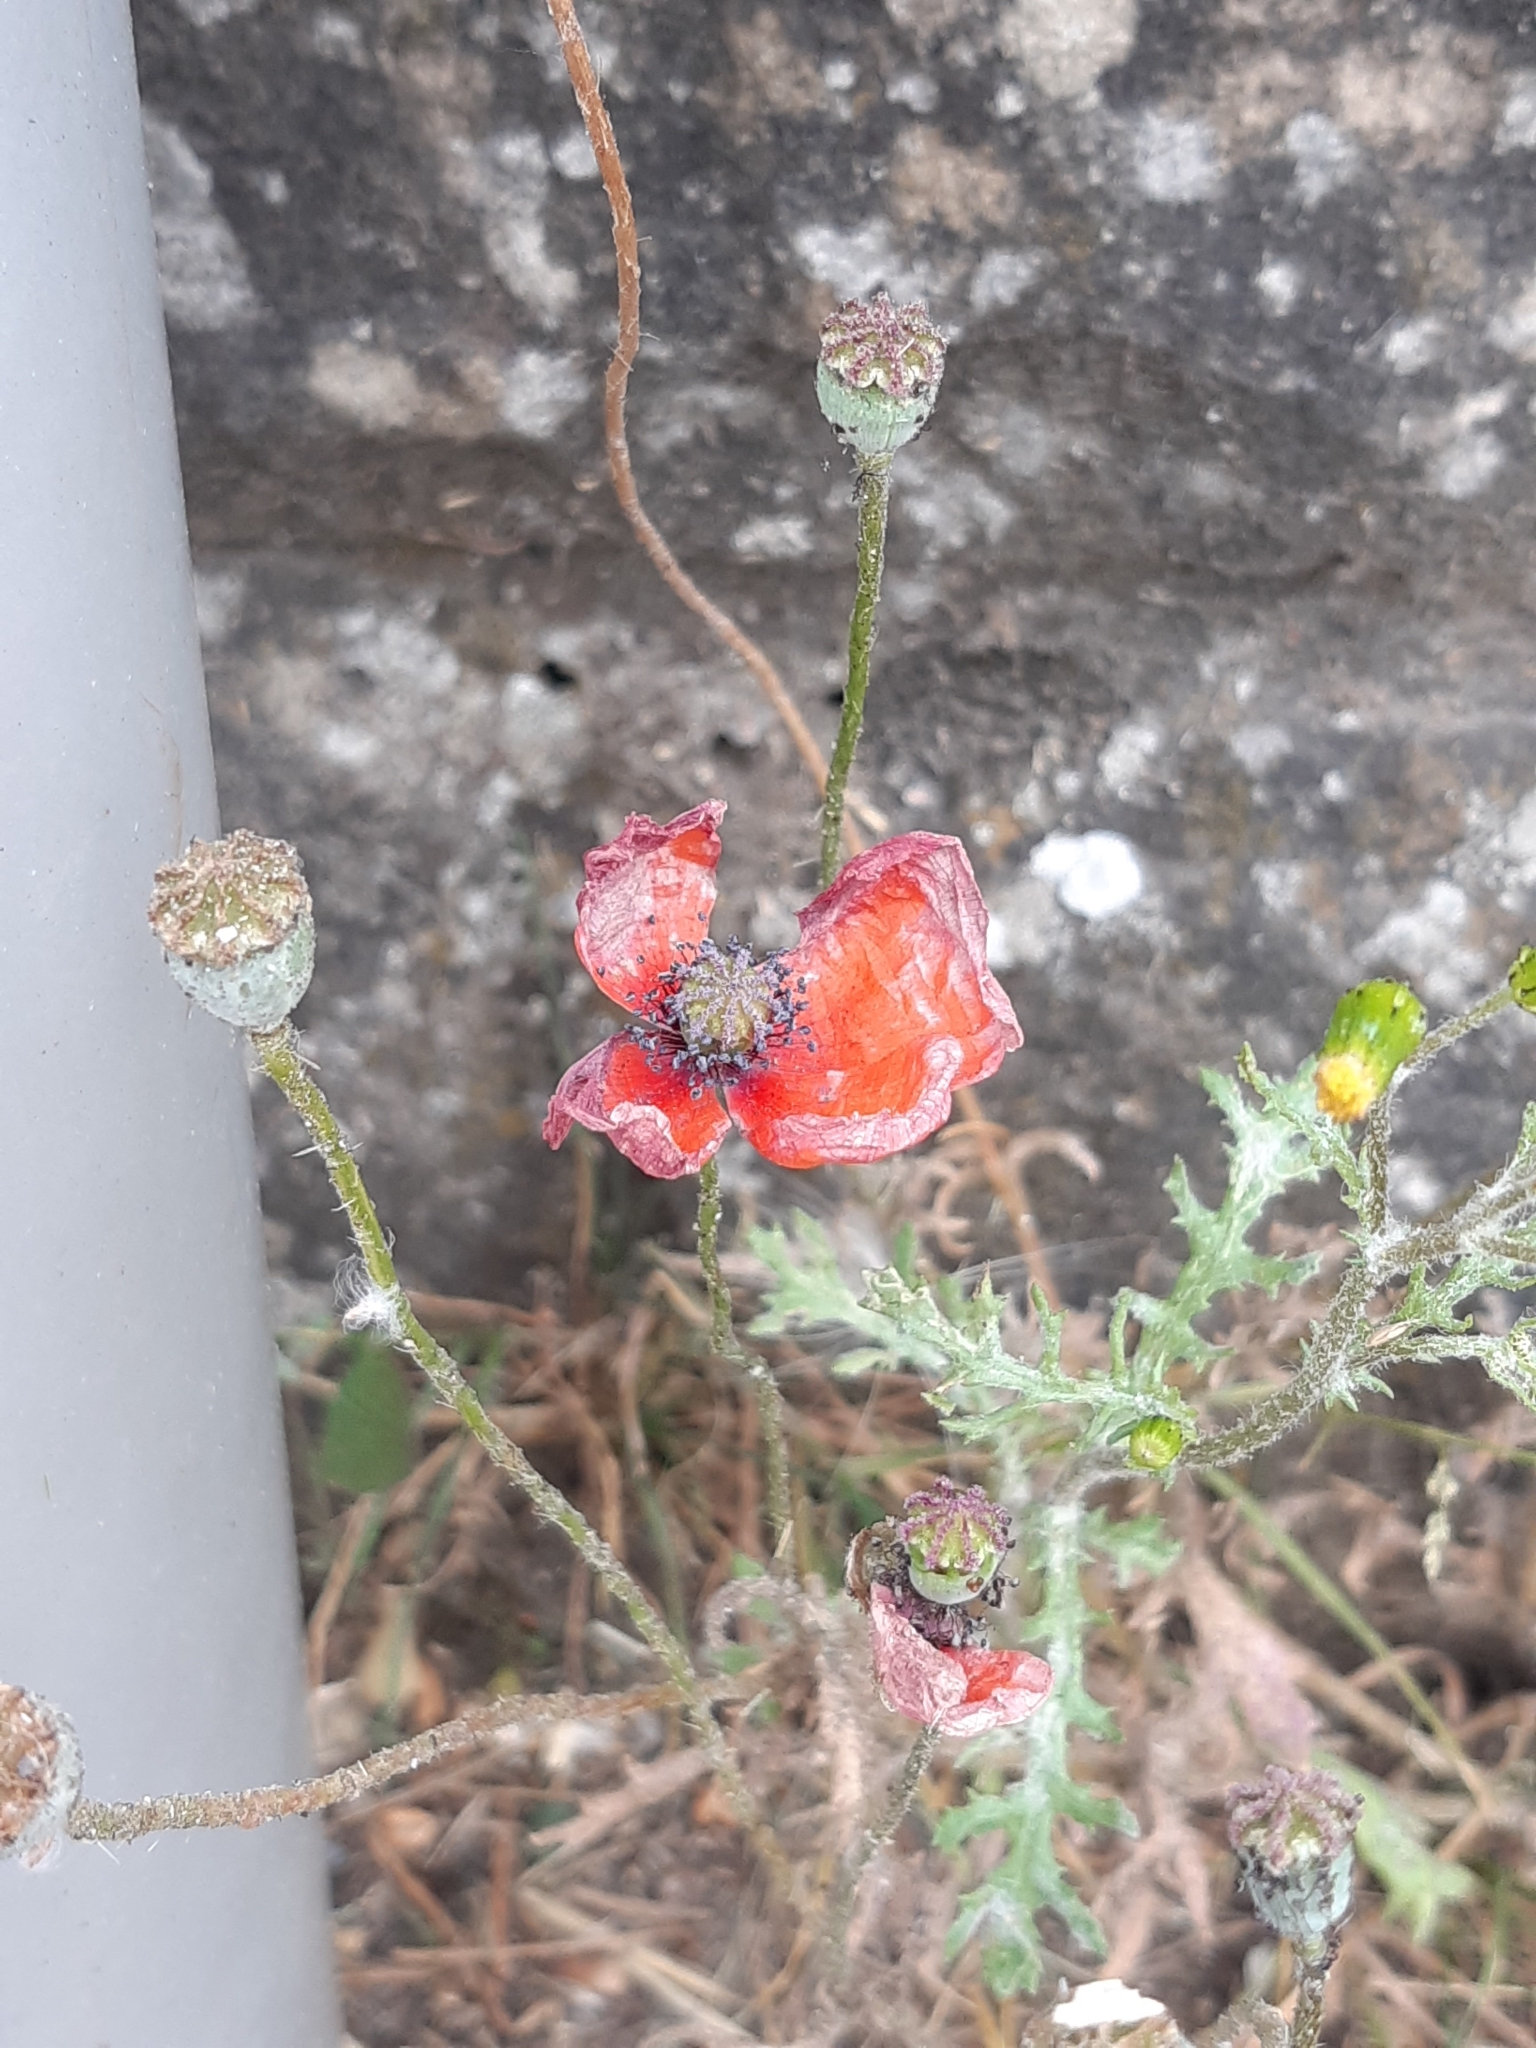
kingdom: Plantae
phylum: Tracheophyta
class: Magnoliopsida
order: Ranunculales
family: Papaveraceae
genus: Papaver
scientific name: Papaver rhoeas
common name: Corn poppy
